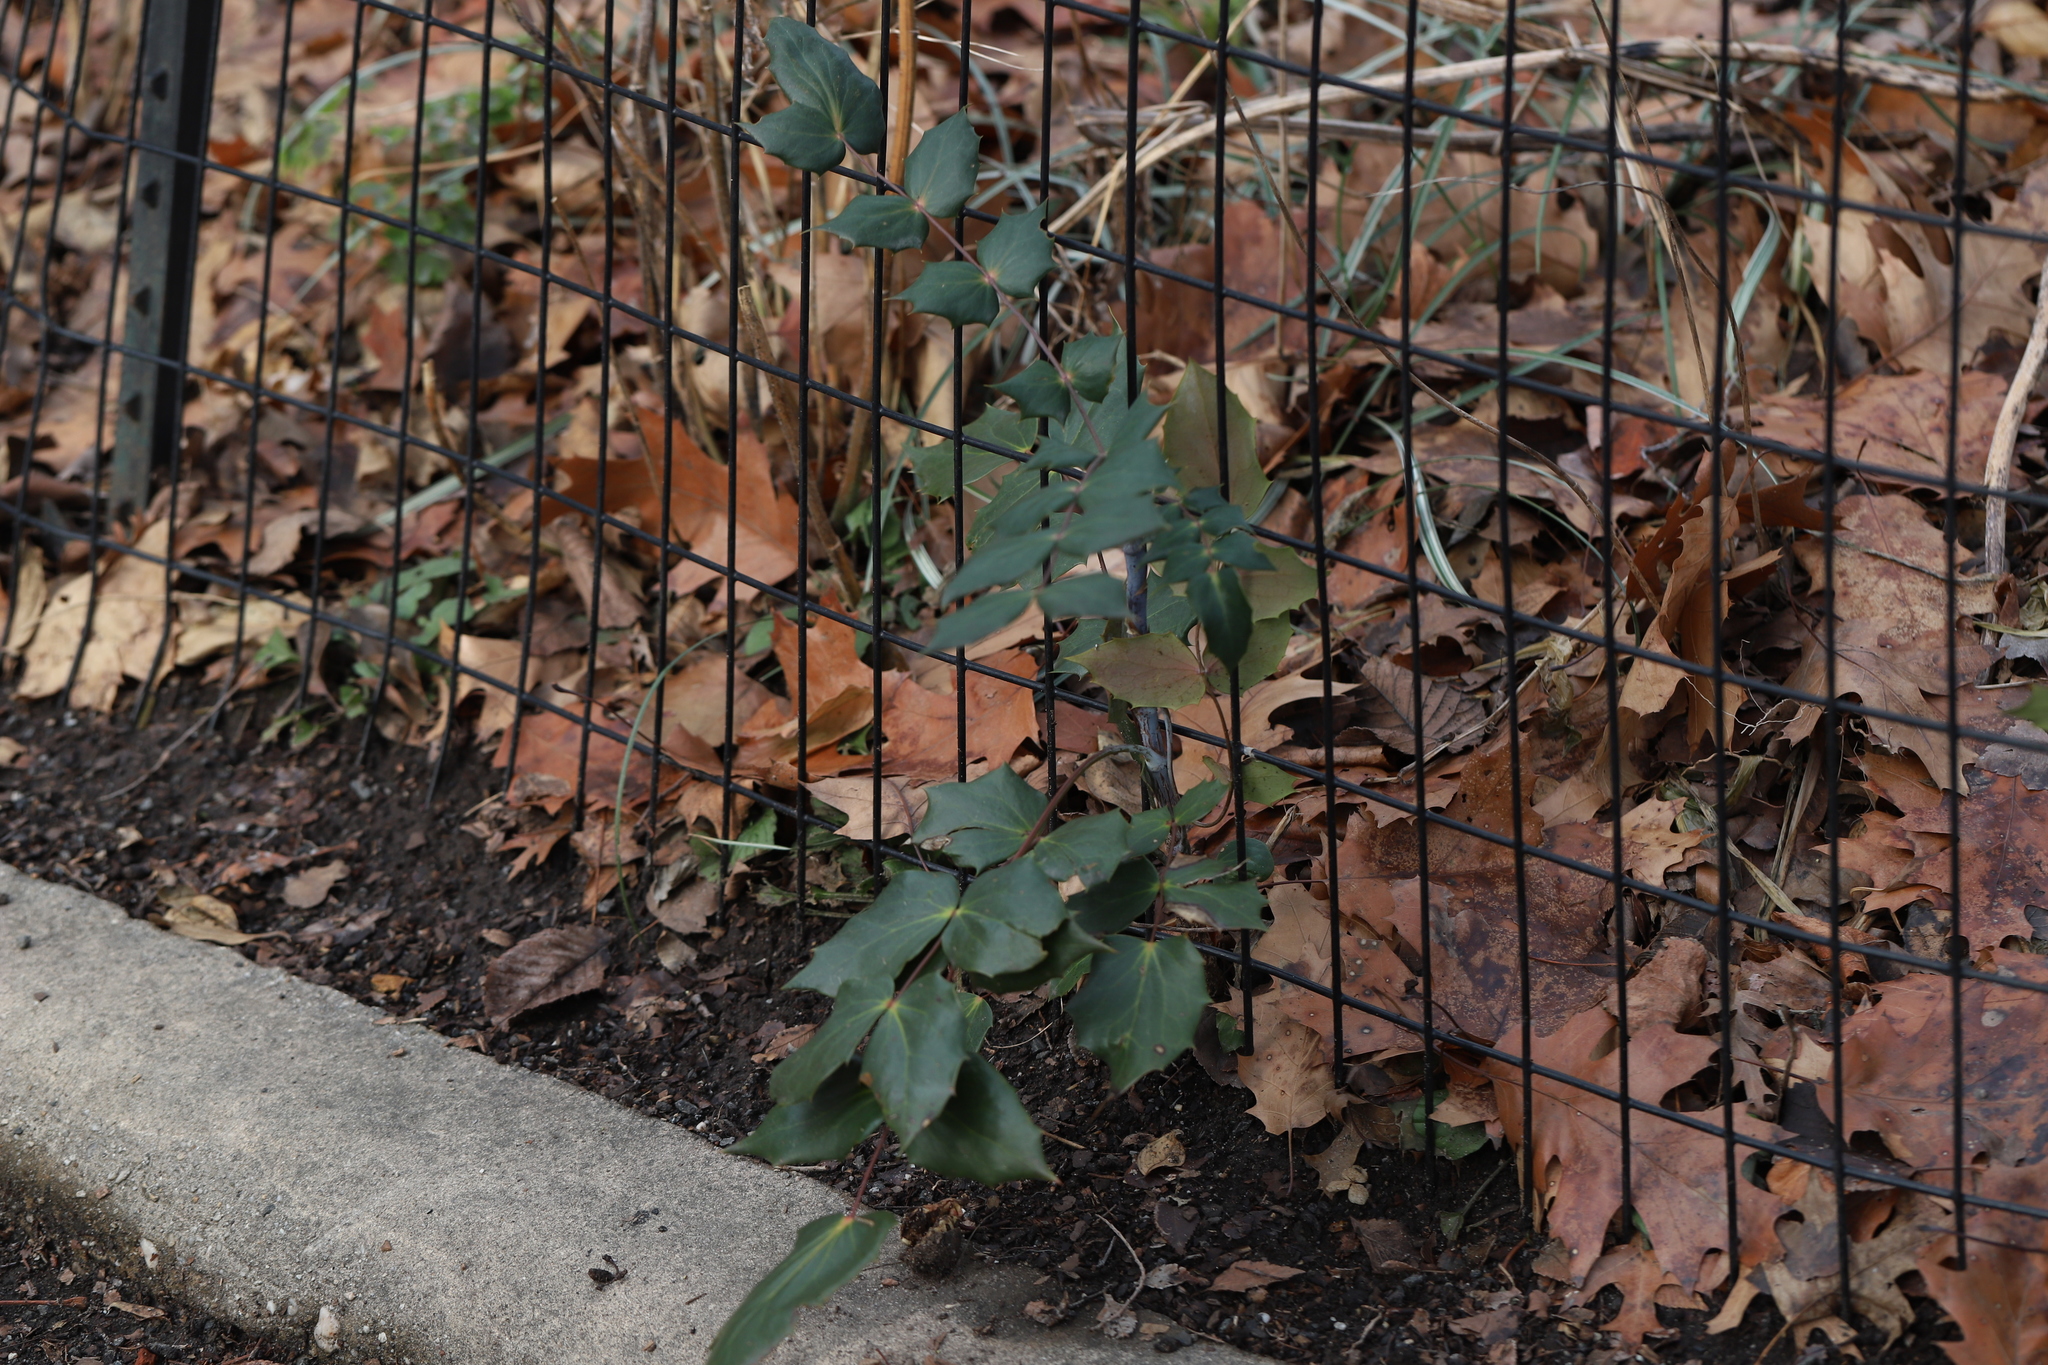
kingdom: Plantae
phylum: Tracheophyta
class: Magnoliopsida
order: Ranunculales
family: Berberidaceae
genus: Mahonia
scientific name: Mahonia bealei
